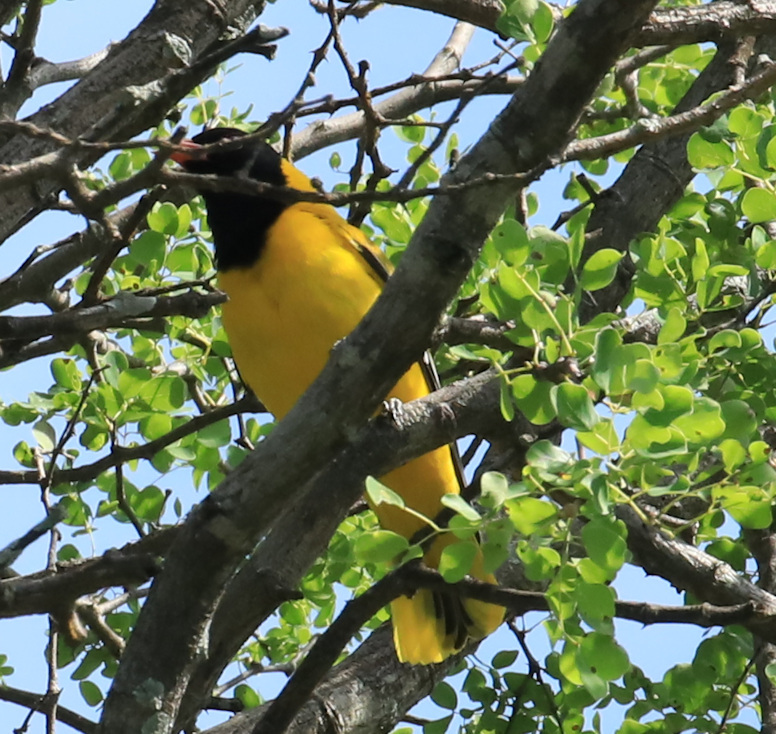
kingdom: Animalia
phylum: Chordata
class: Aves
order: Passeriformes
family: Oriolidae
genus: Oriolus
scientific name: Oriolus larvatus
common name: Black-headed oriole
